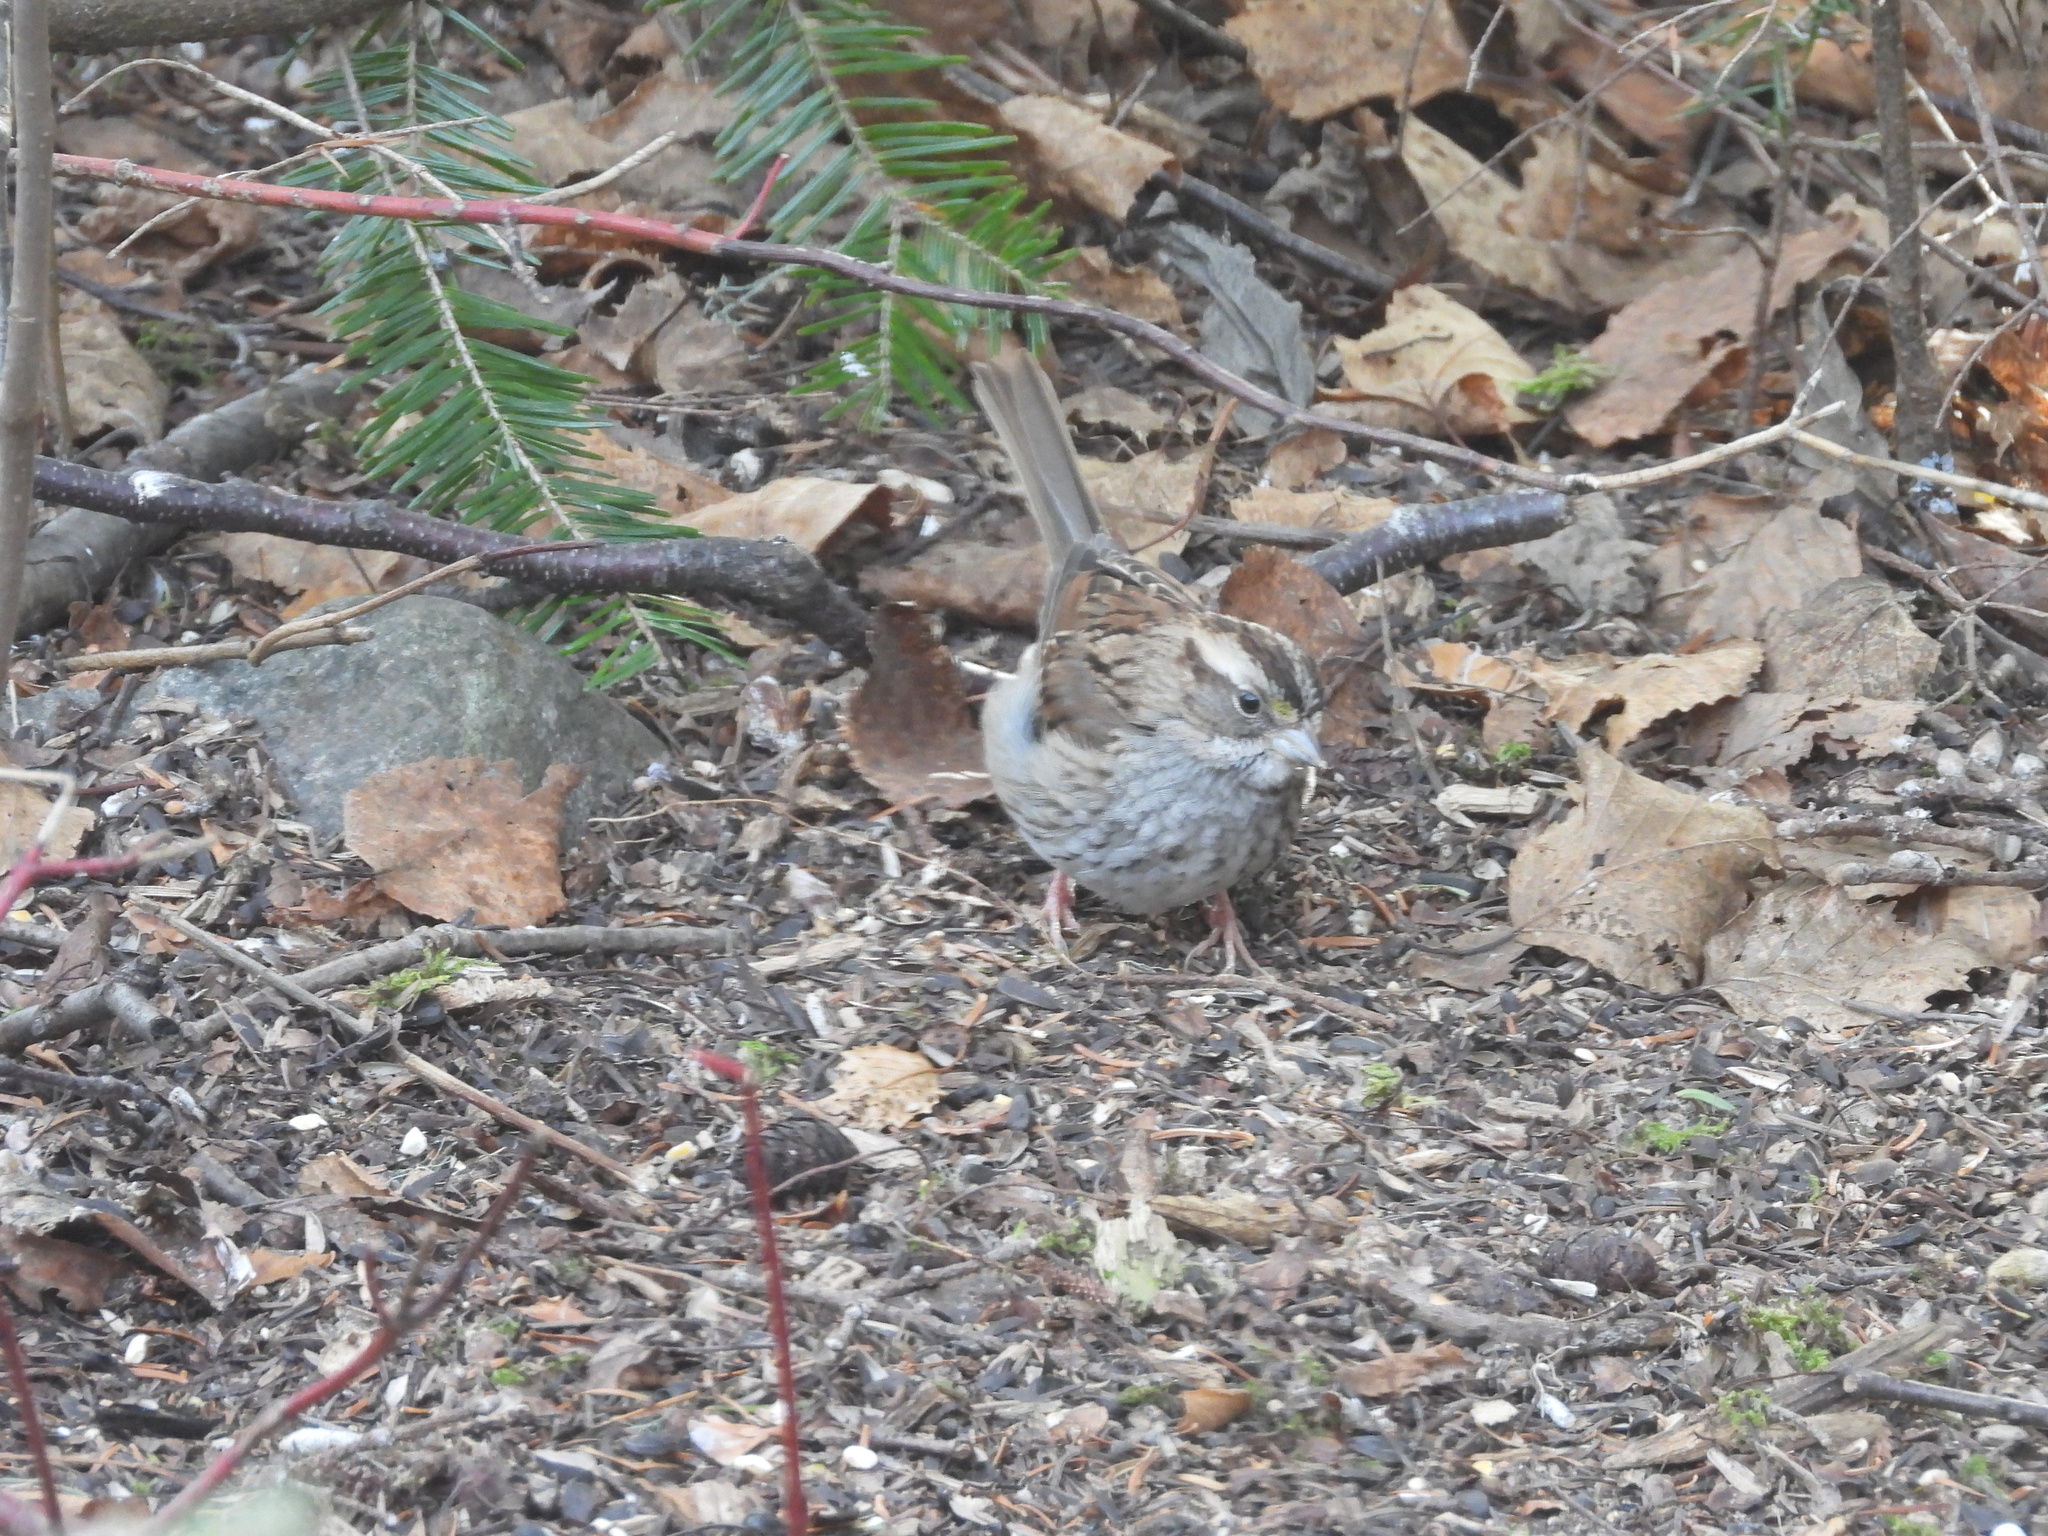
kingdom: Animalia
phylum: Chordata
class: Aves
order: Passeriformes
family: Passerellidae
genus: Zonotrichia
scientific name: Zonotrichia albicollis
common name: White-throated sparrow
